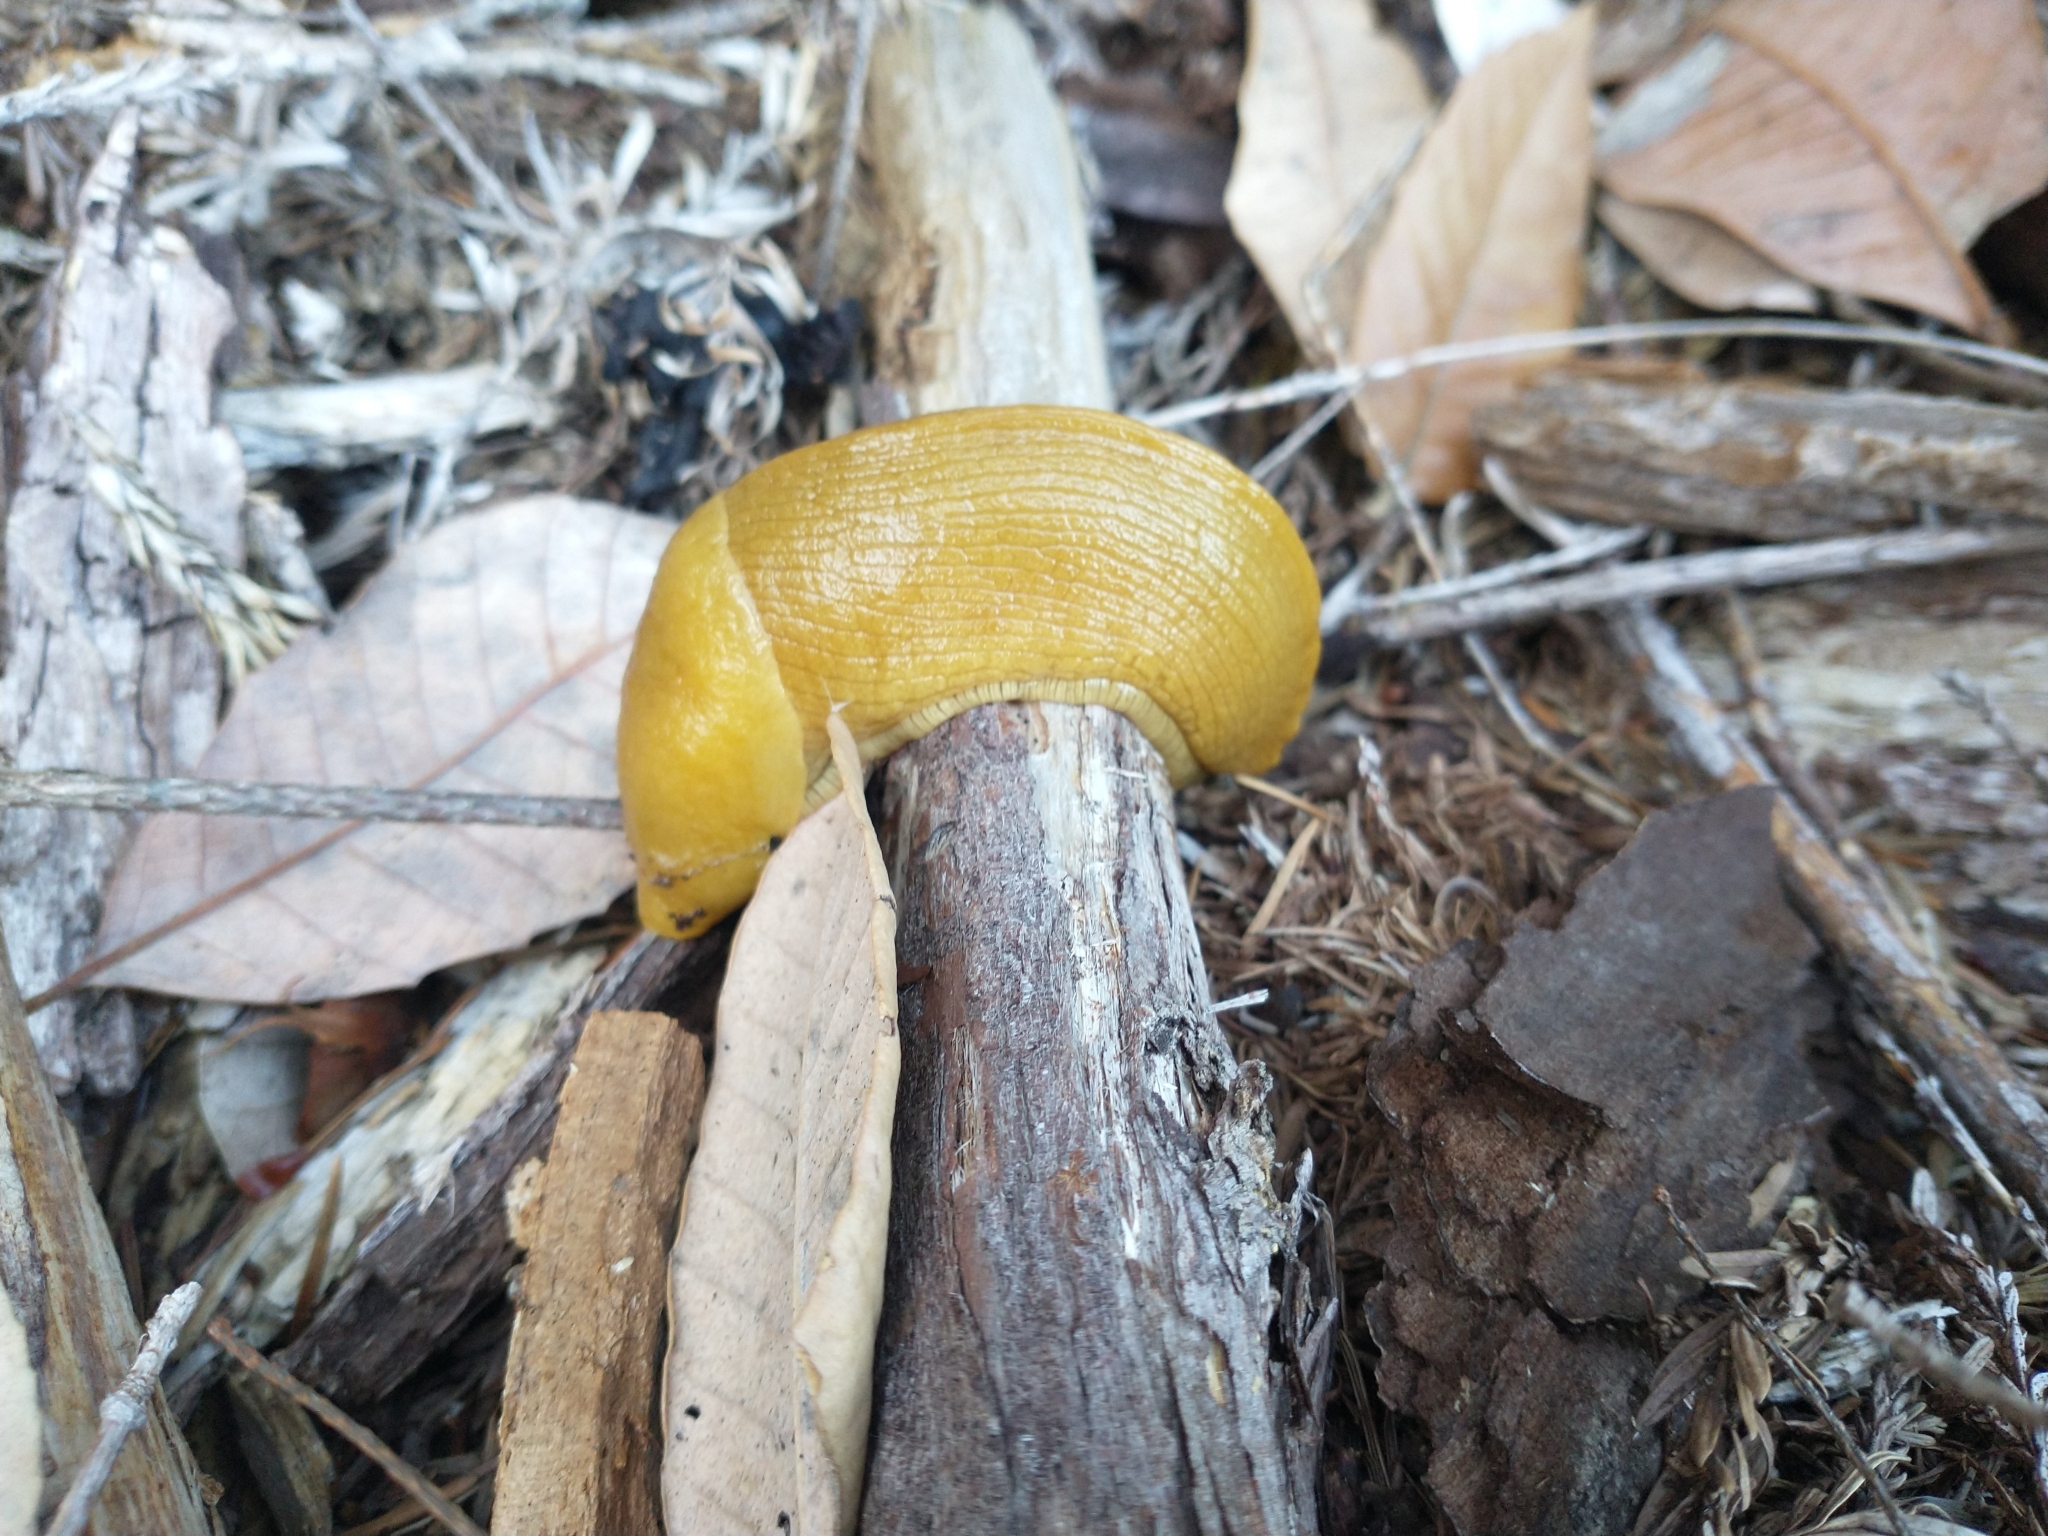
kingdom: Animalia
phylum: Mollusca
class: Gastropoda
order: Stylommatophora
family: Ariolimacidae
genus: Ariolimax
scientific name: Ariolimax columbianus
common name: Pacific banana slug
